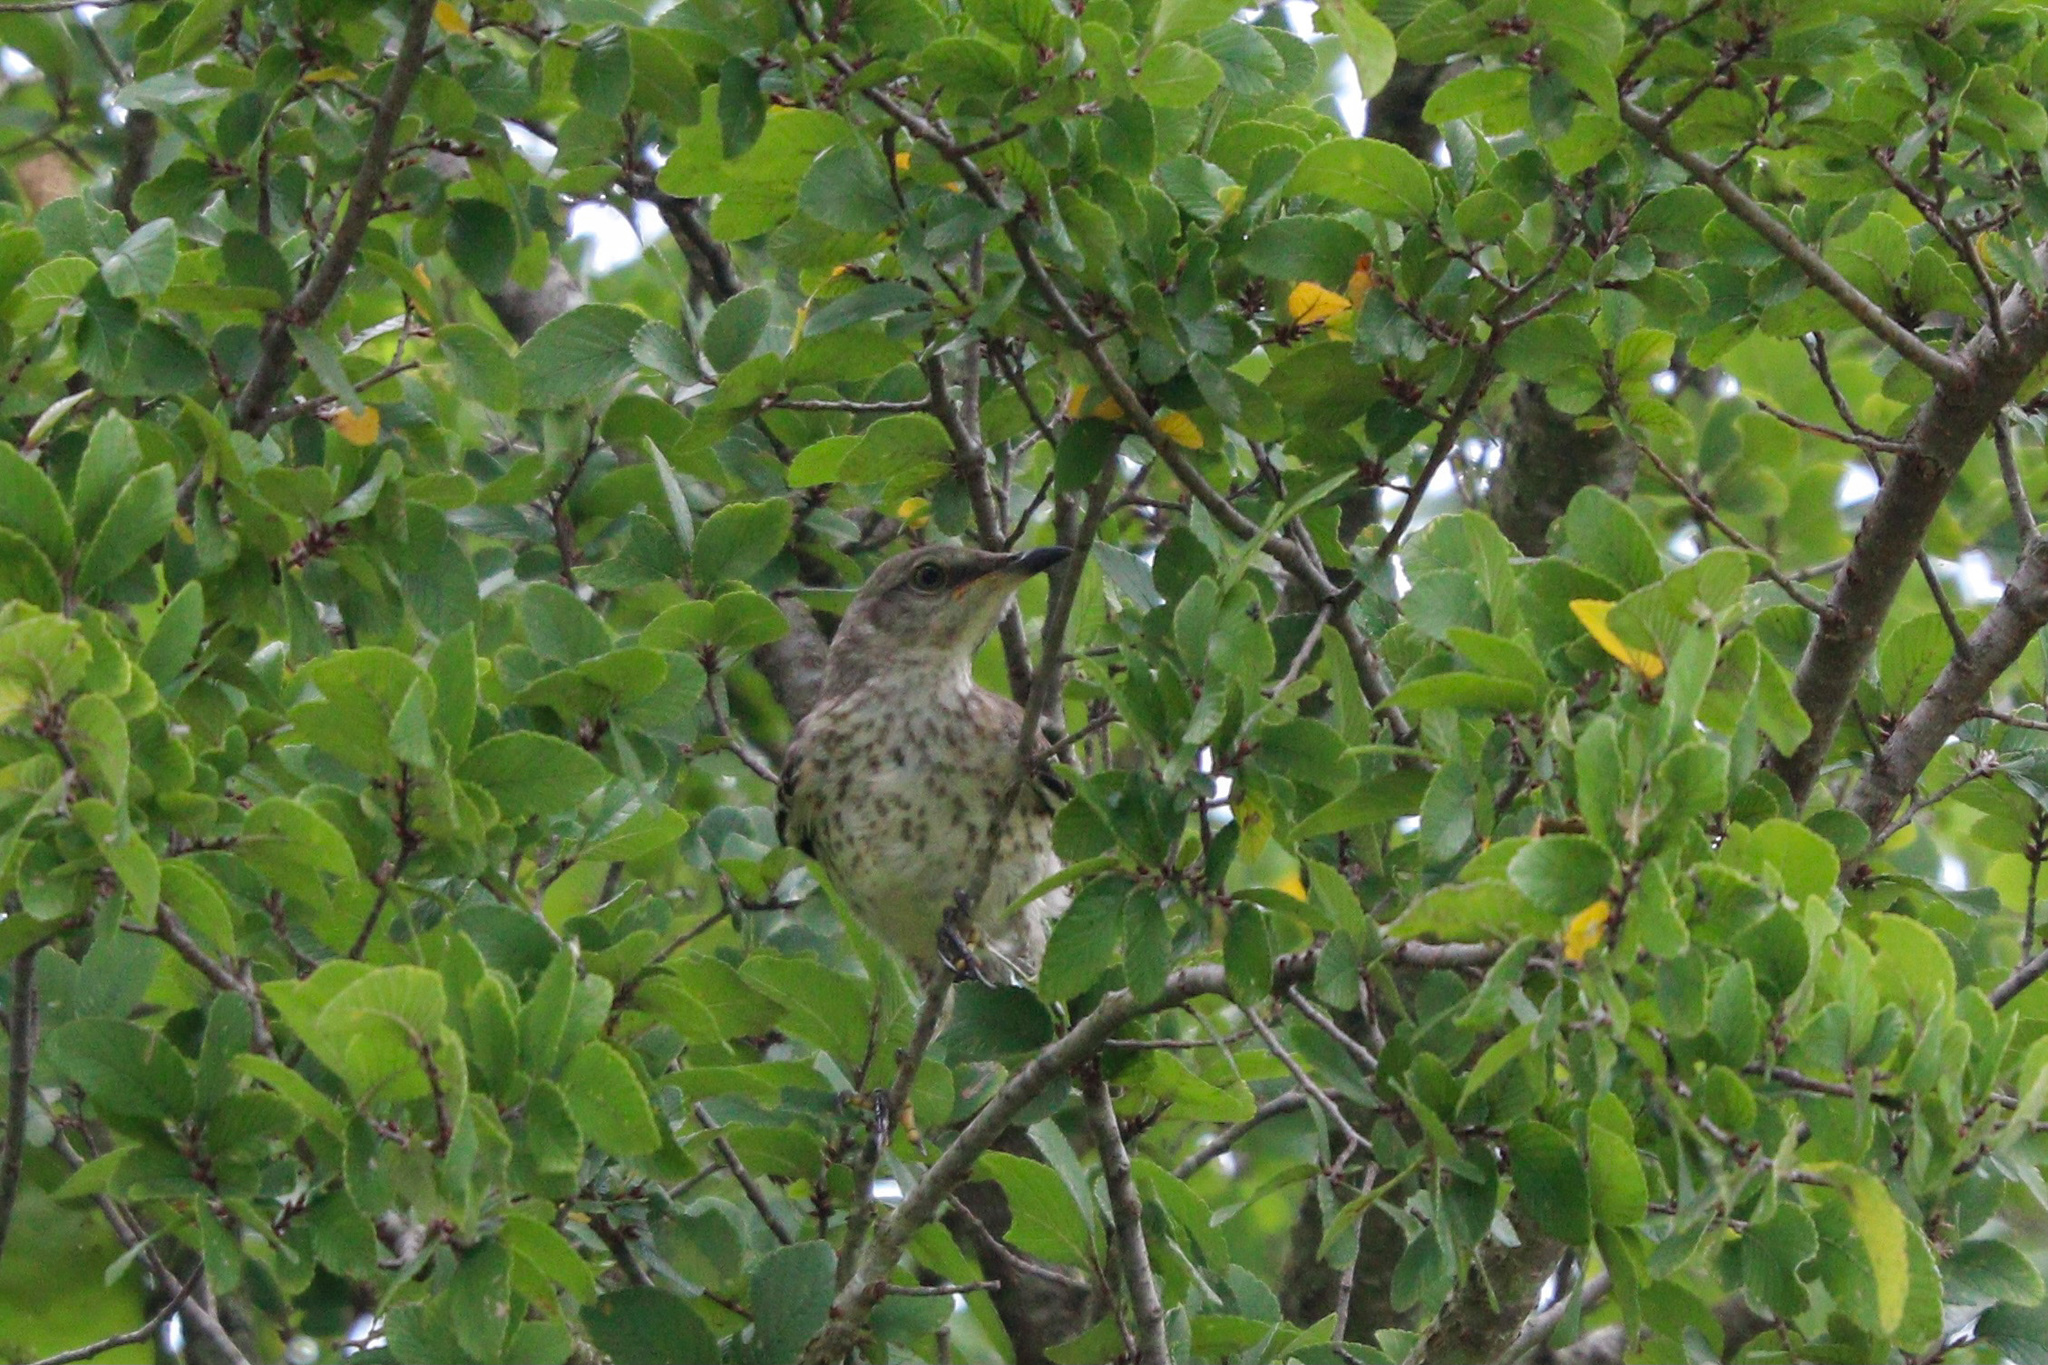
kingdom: Animalia
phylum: Chordata
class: Aves
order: Passeriformes
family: Mimidae
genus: Mimus
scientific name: Mimus polyglottos
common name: Northern mockingbird
